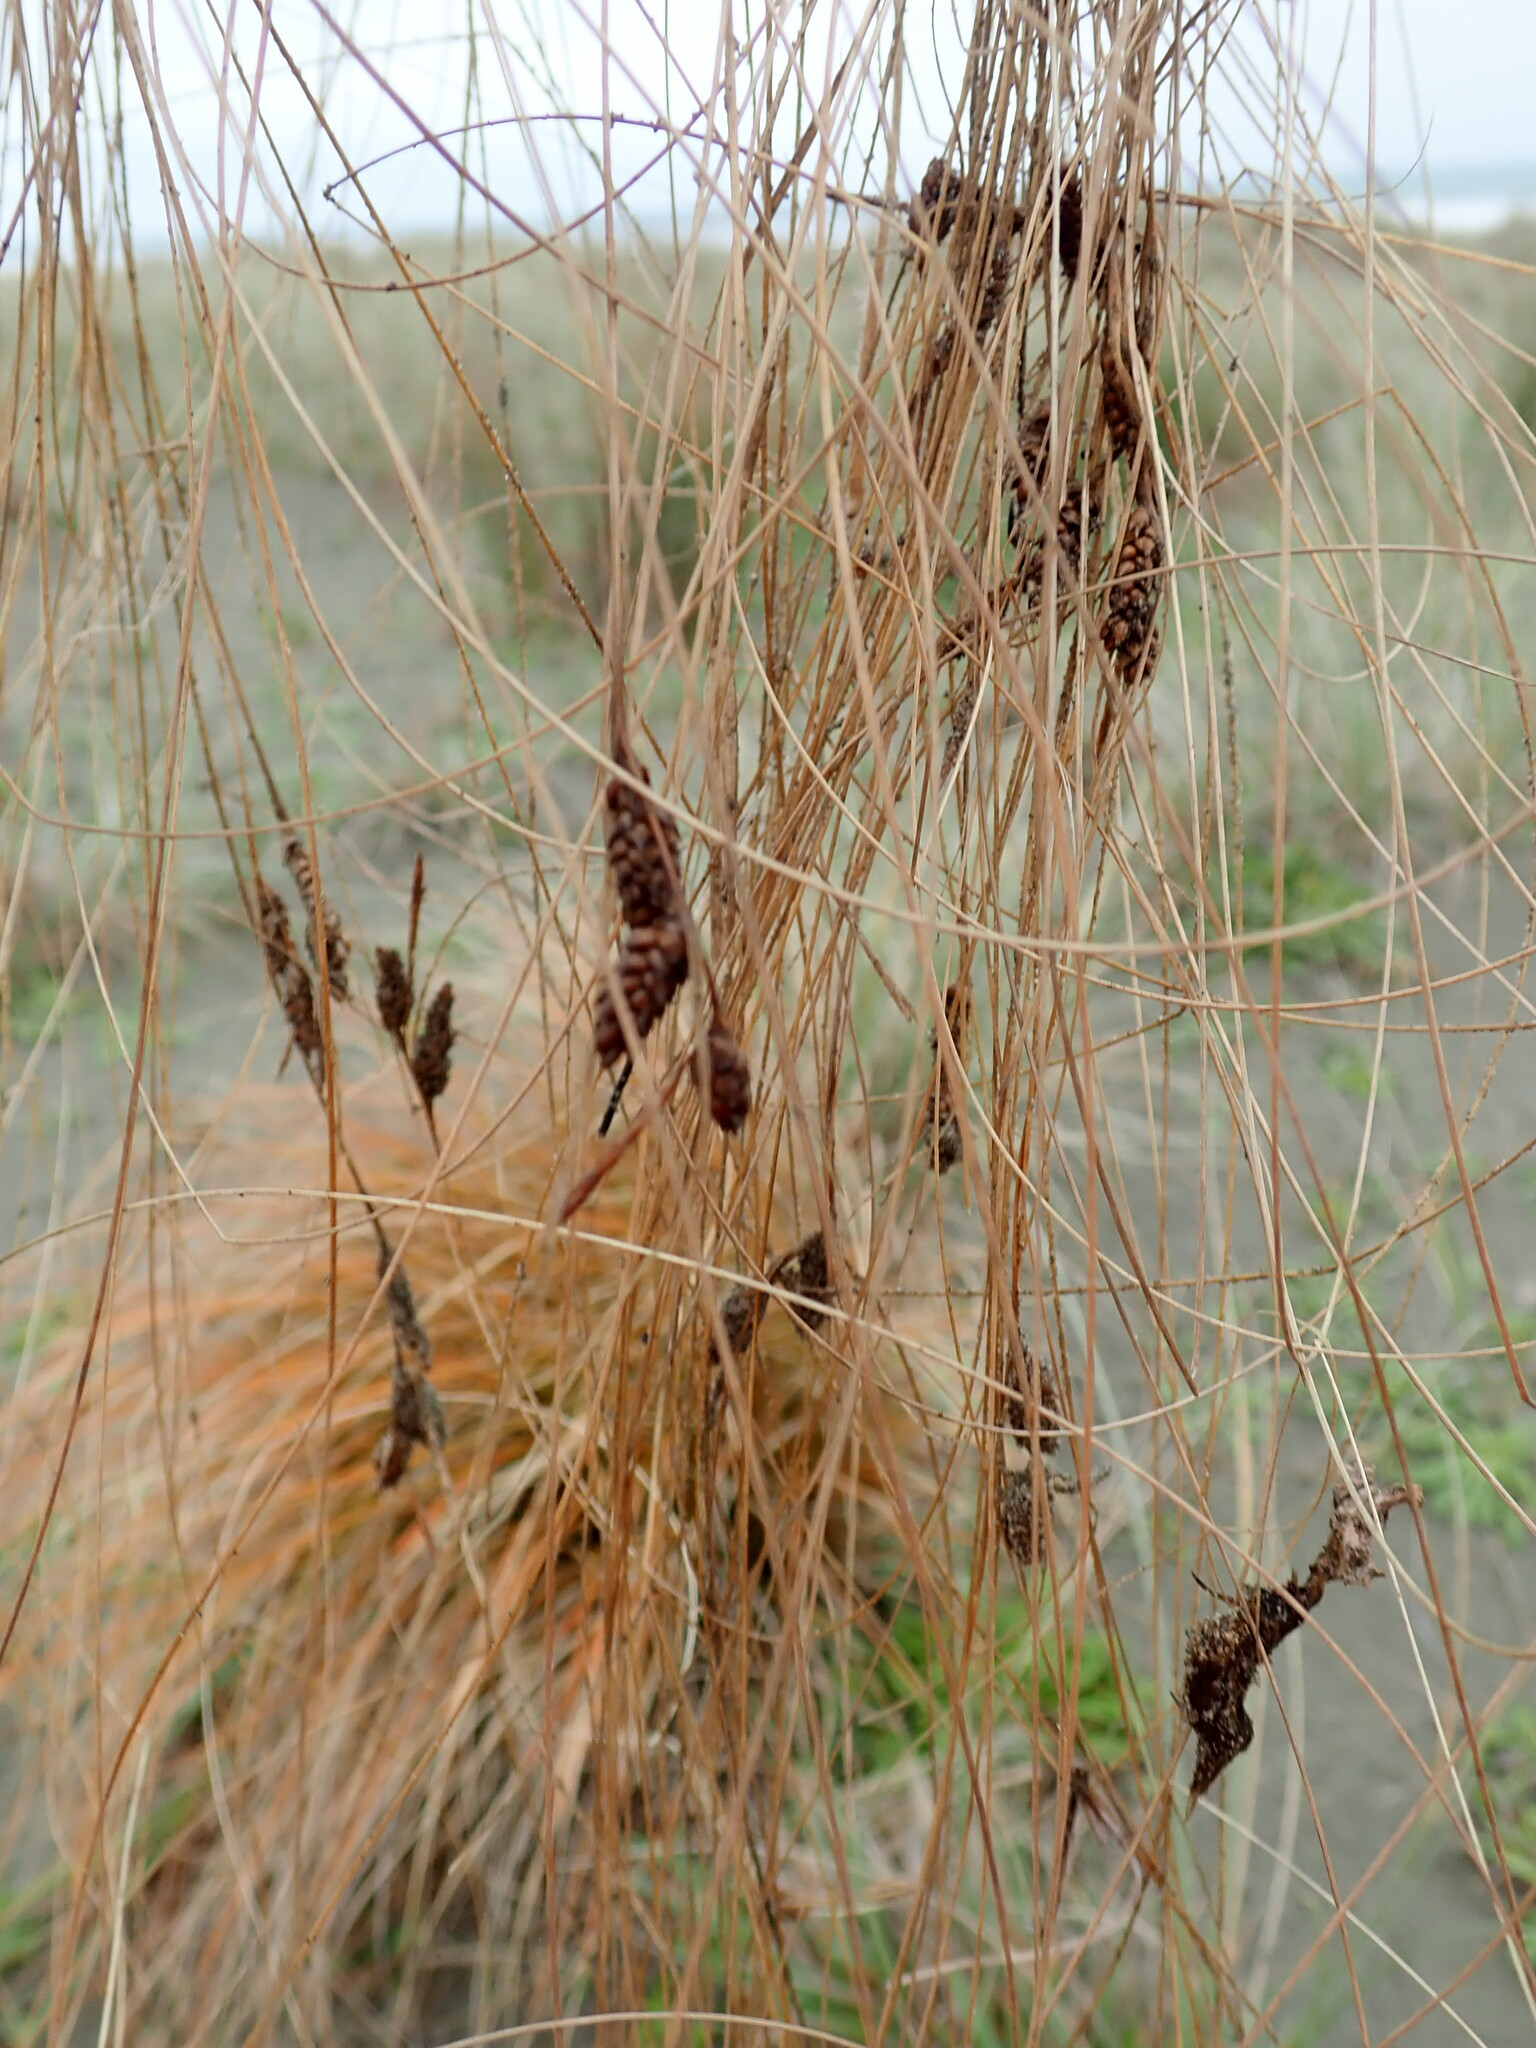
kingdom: Plantae
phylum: Tracheophyta
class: Liliopsida
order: Poales
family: Cyperaceae
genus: Carex
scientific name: Carex testacea
